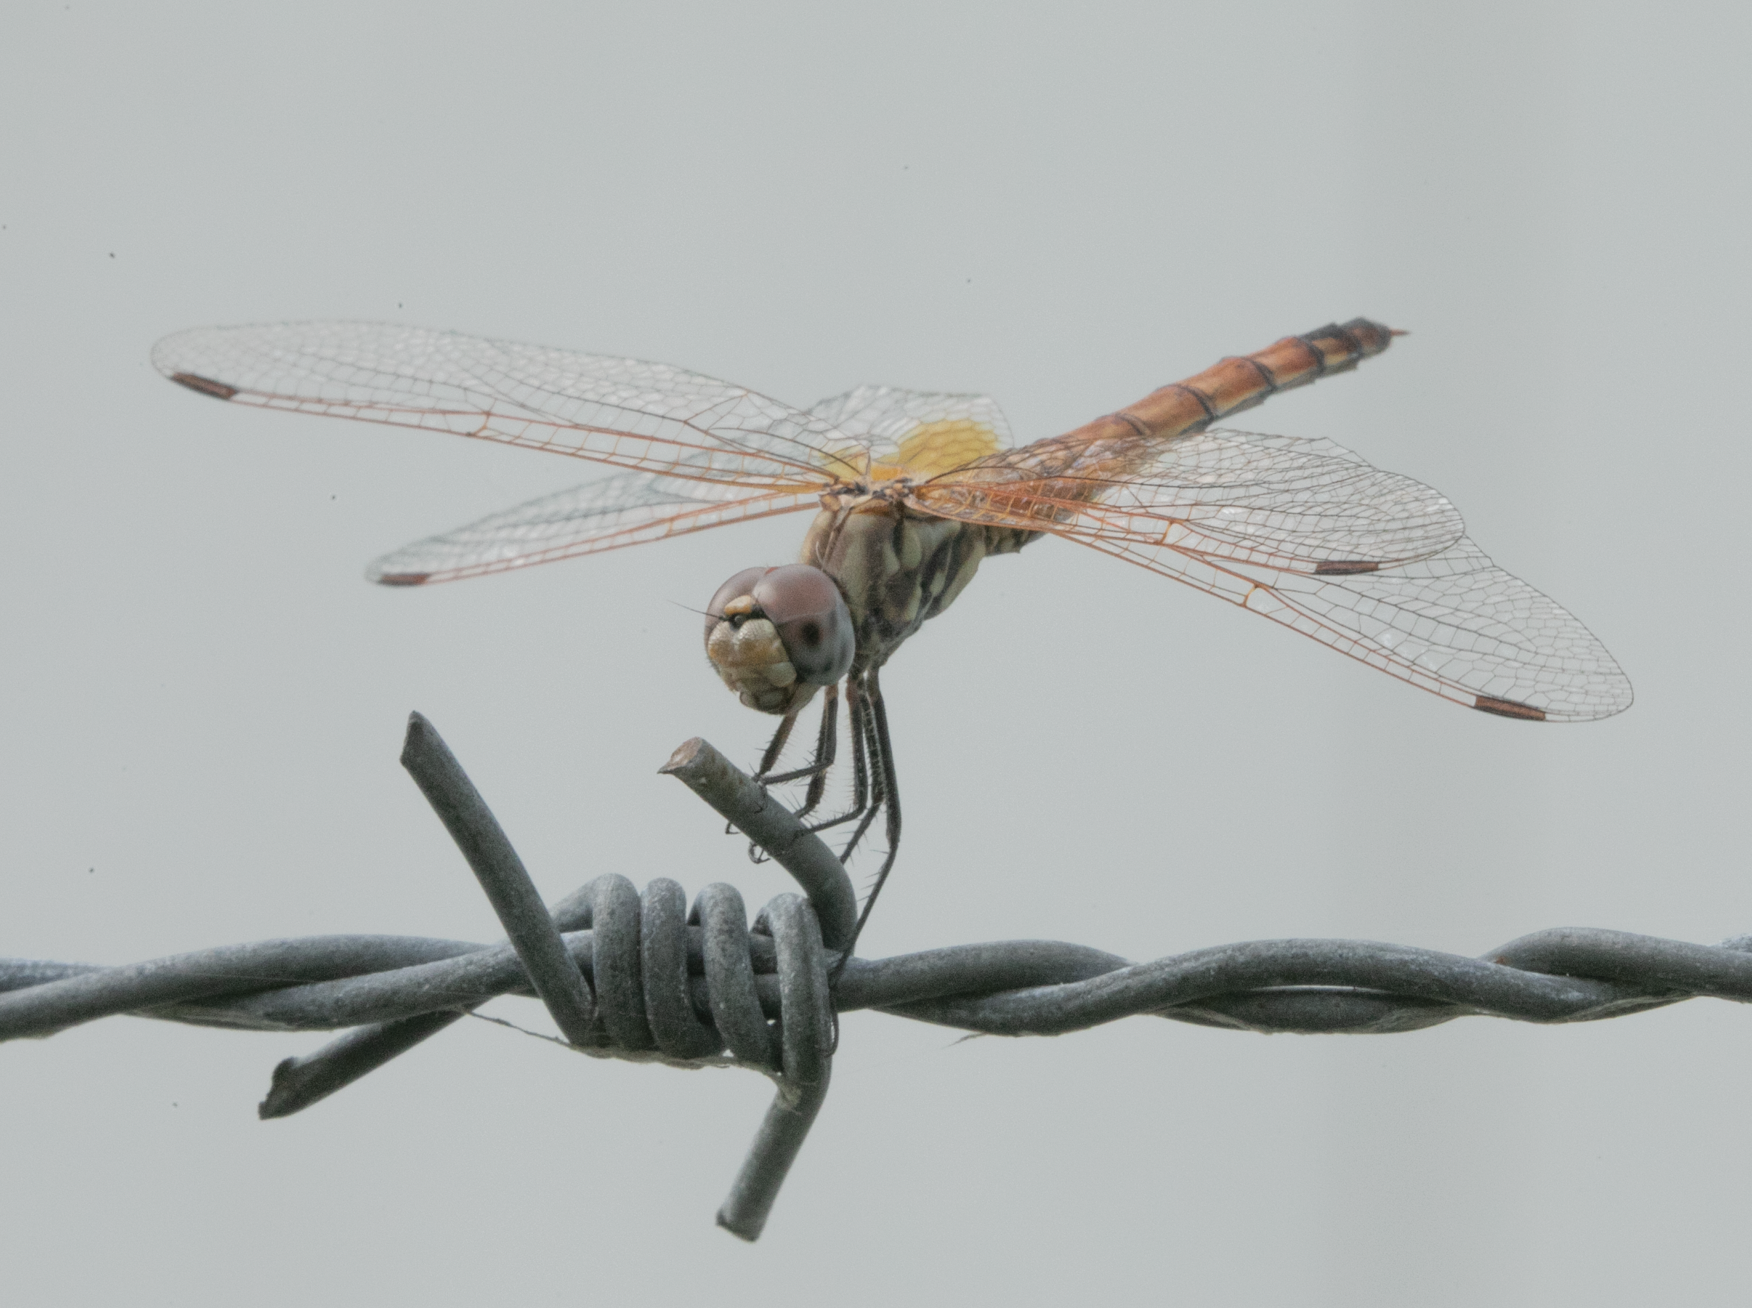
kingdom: Animalia
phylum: Arthropoda
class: Insecta
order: Odonata
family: Libellulidae
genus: Trithemis
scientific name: Trithemis annulata
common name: Violet dropwing
